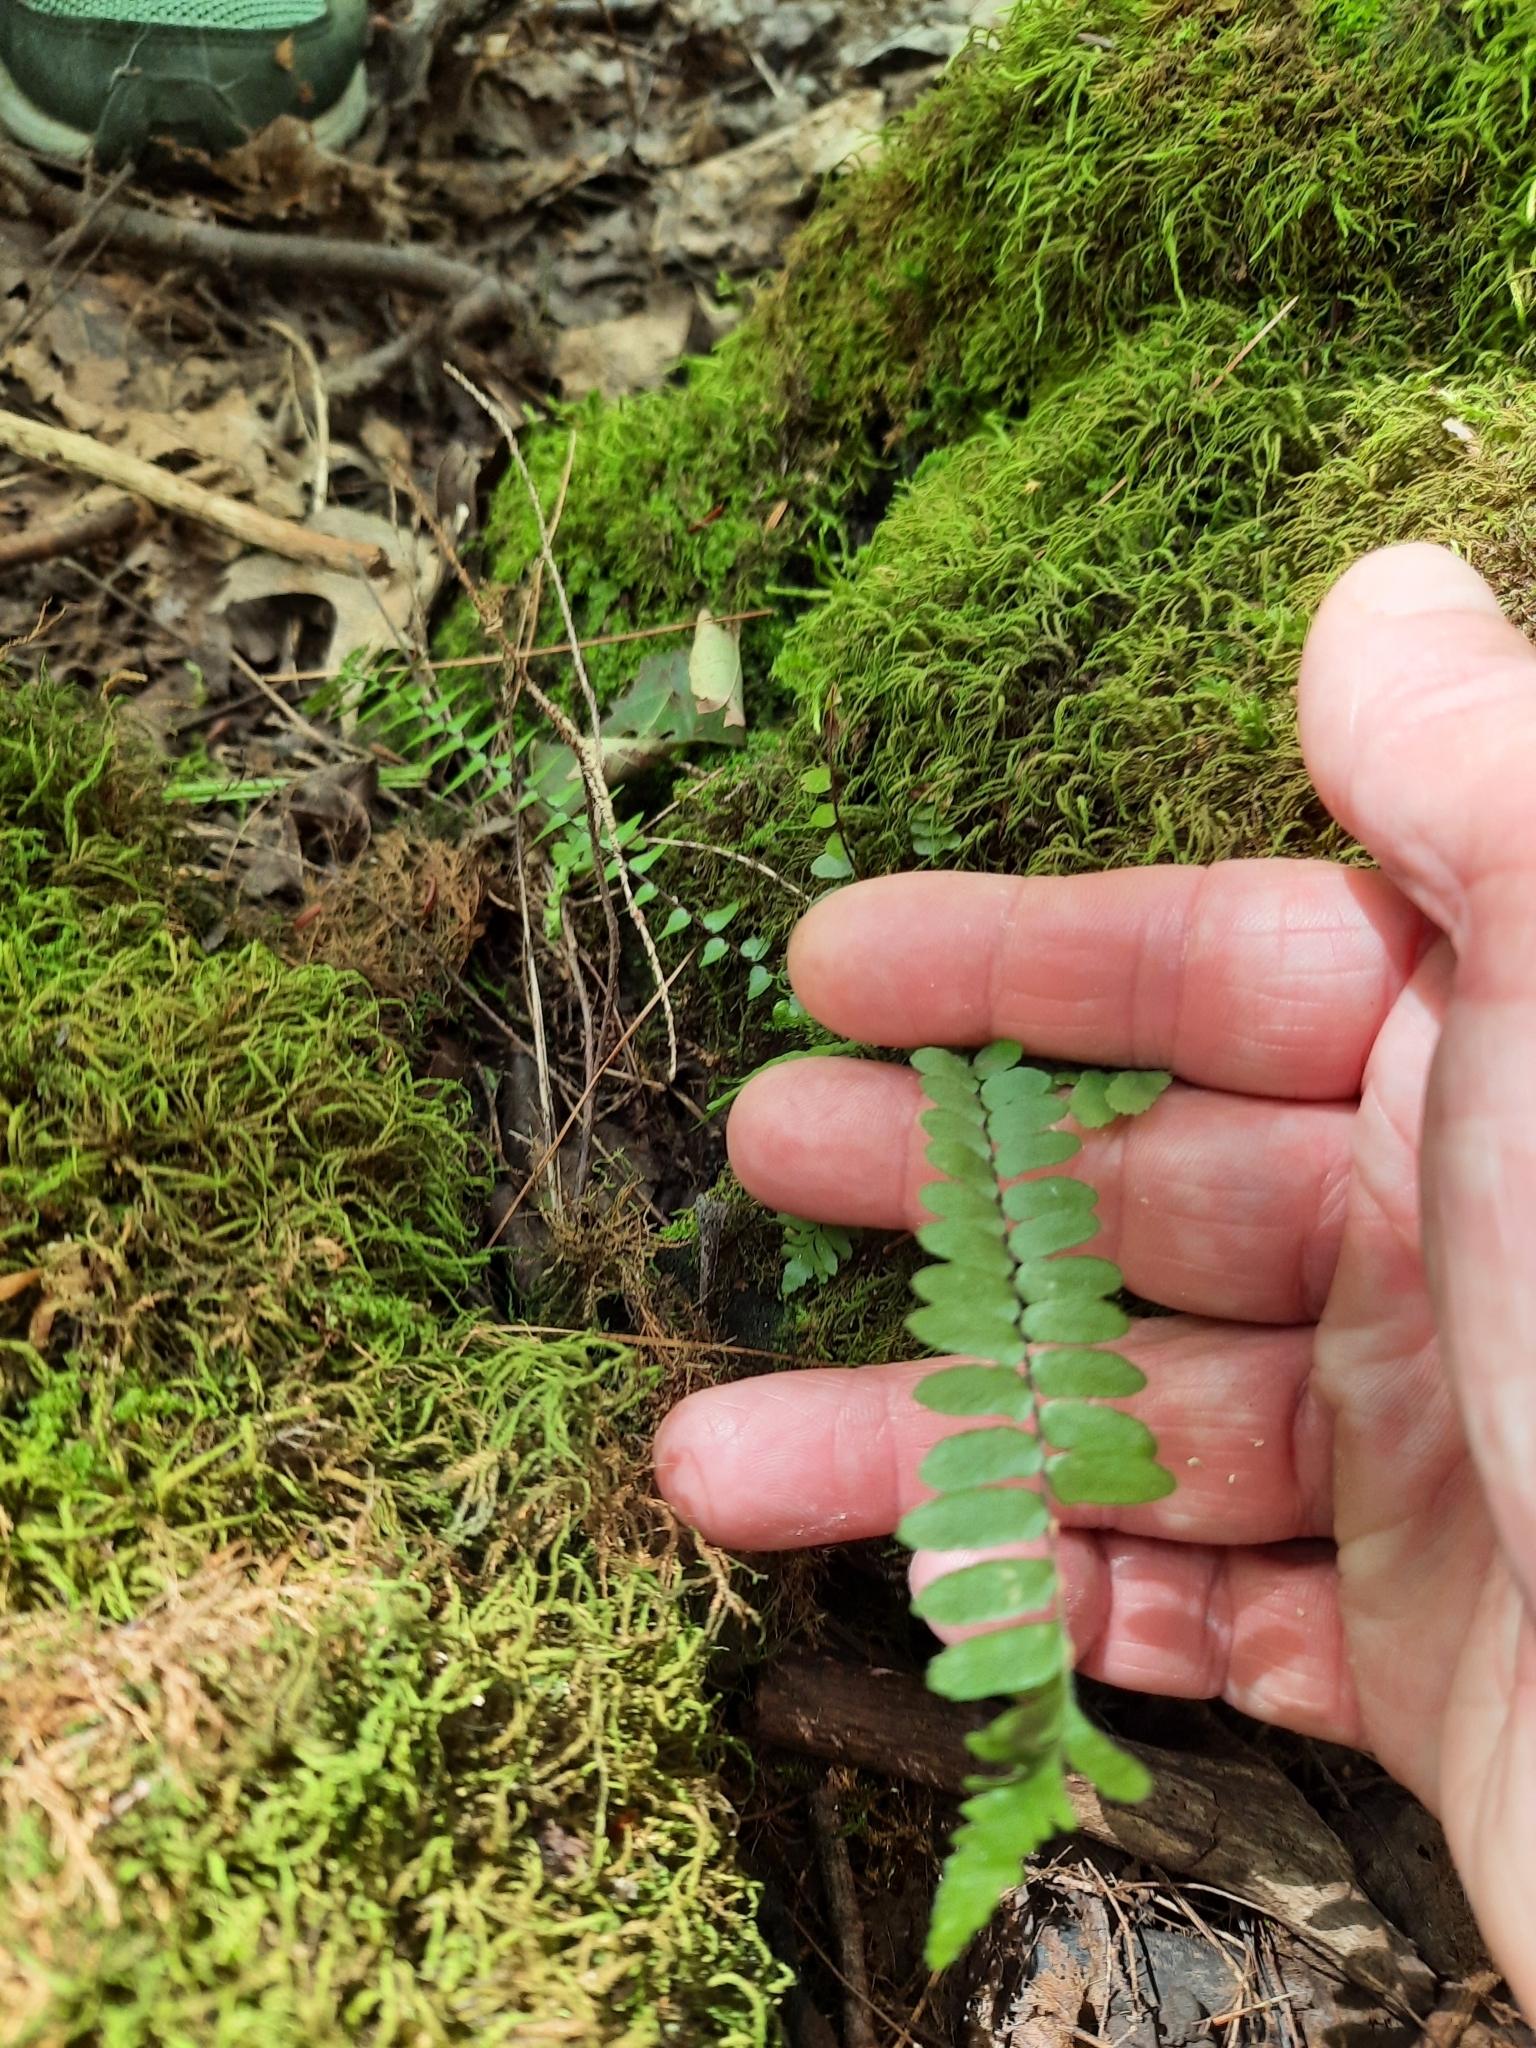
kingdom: Plantae
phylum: Tracheophyta
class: Polypodiopsida
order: Polypodiales
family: Aspleniaceae
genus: Asplenium
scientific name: Asplenium platyneuron
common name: Ebony spleenwort
